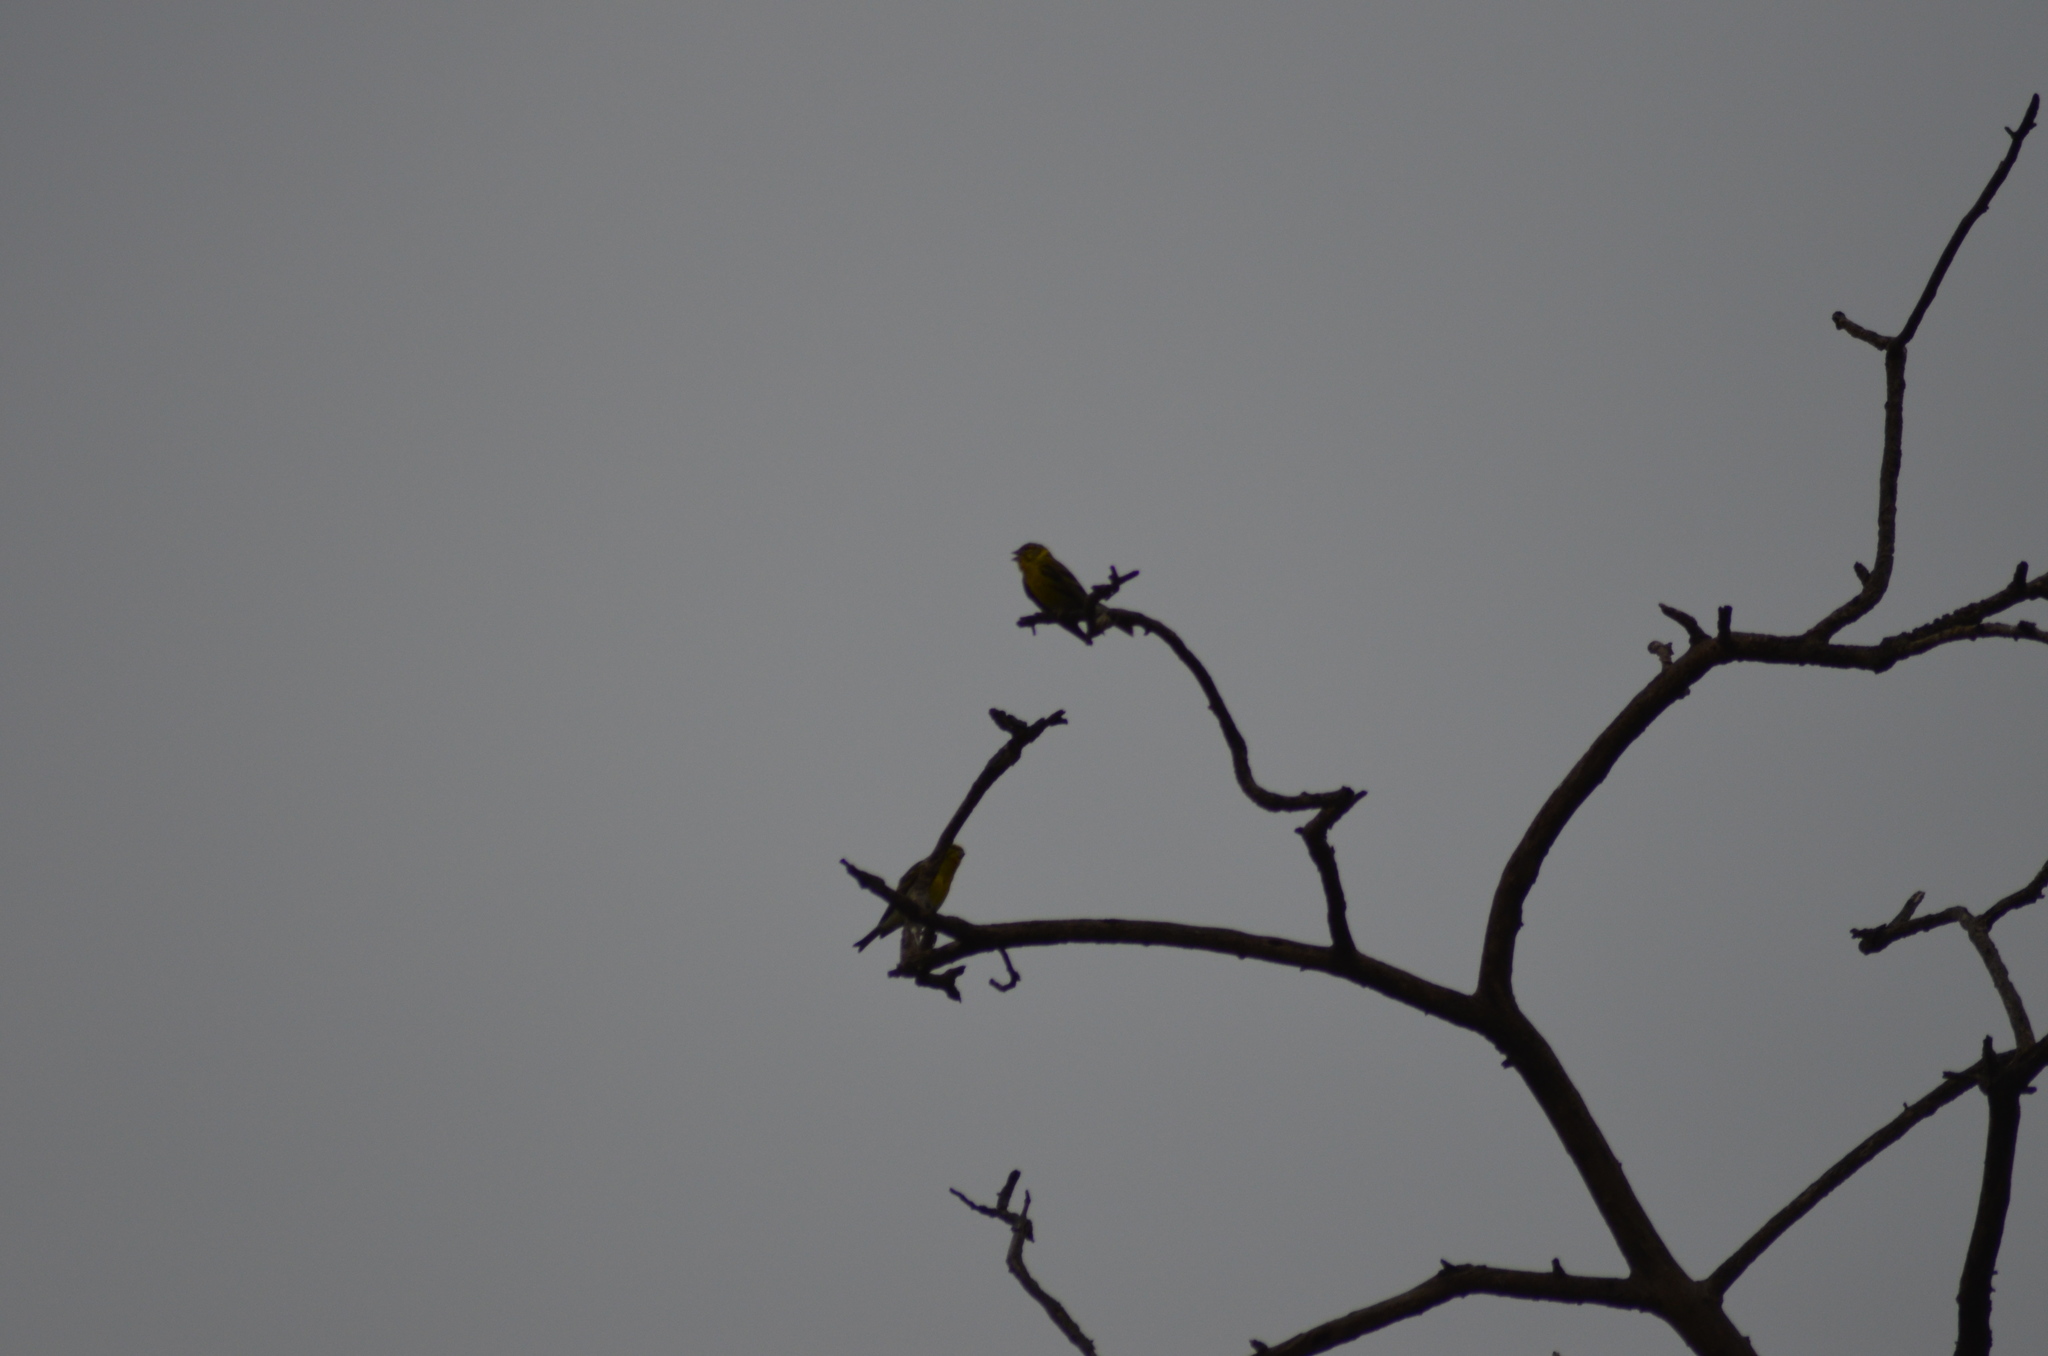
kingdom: Animalia
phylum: Chordata
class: Aves
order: Passeriformes
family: Fringillidae
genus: Serinus
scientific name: Serinus serinus
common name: European serin
